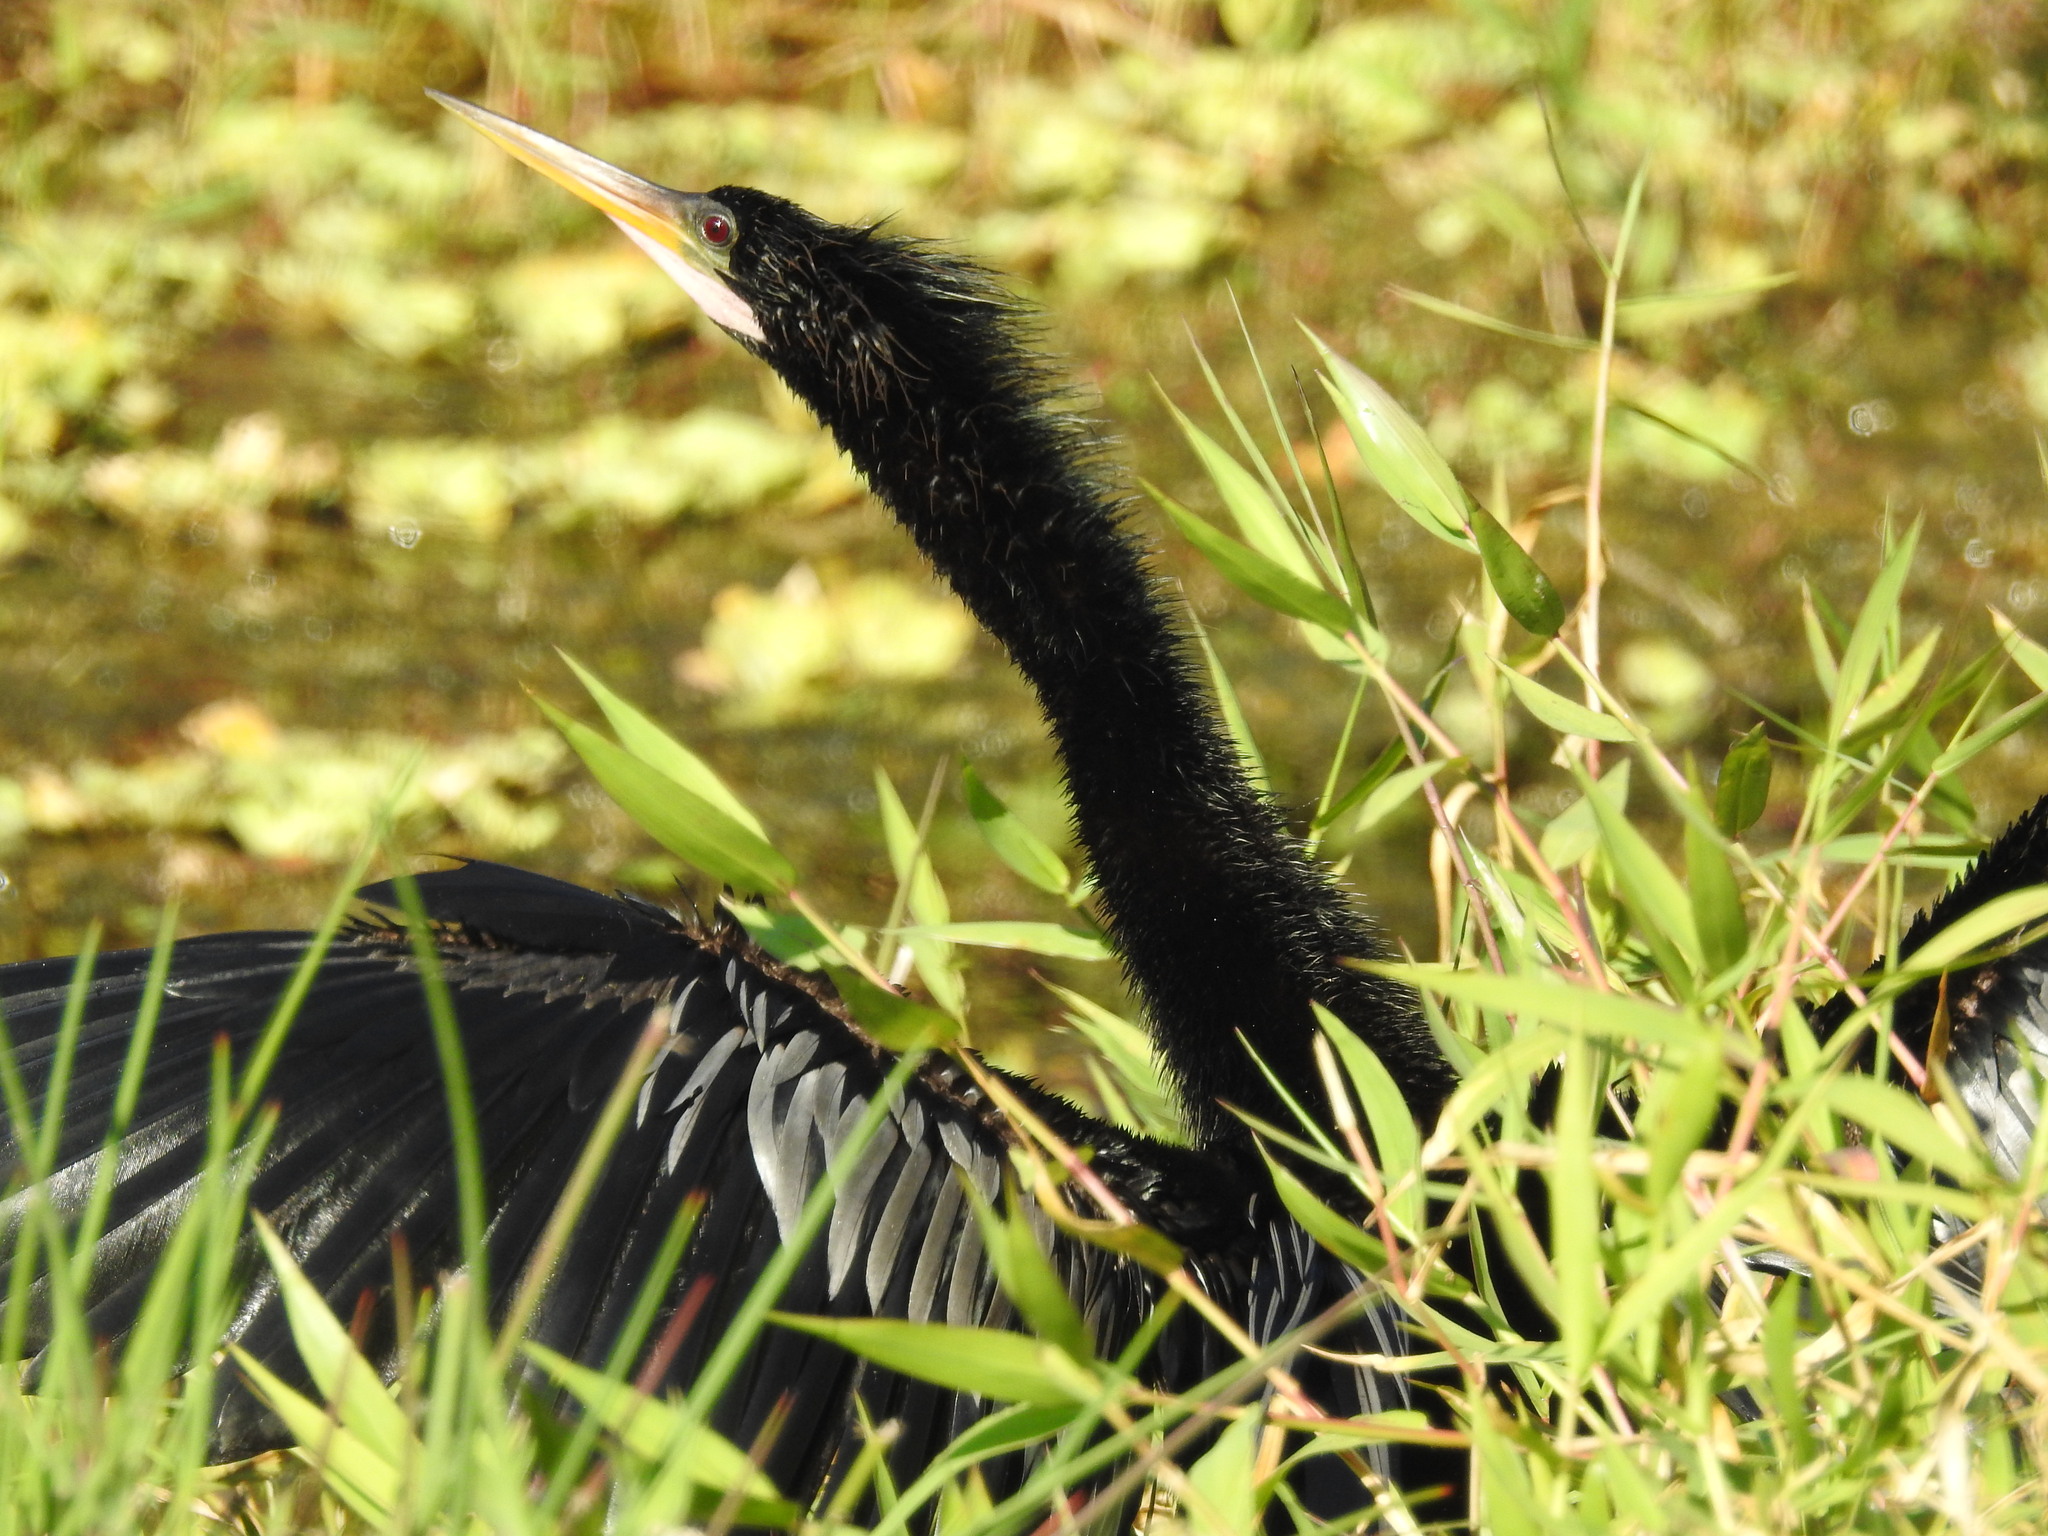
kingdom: Animalia
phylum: Chordata
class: Aves
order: Suliformes
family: Anhingidae
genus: Anhinga
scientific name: Anhinga anhinga
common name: Anhinga
